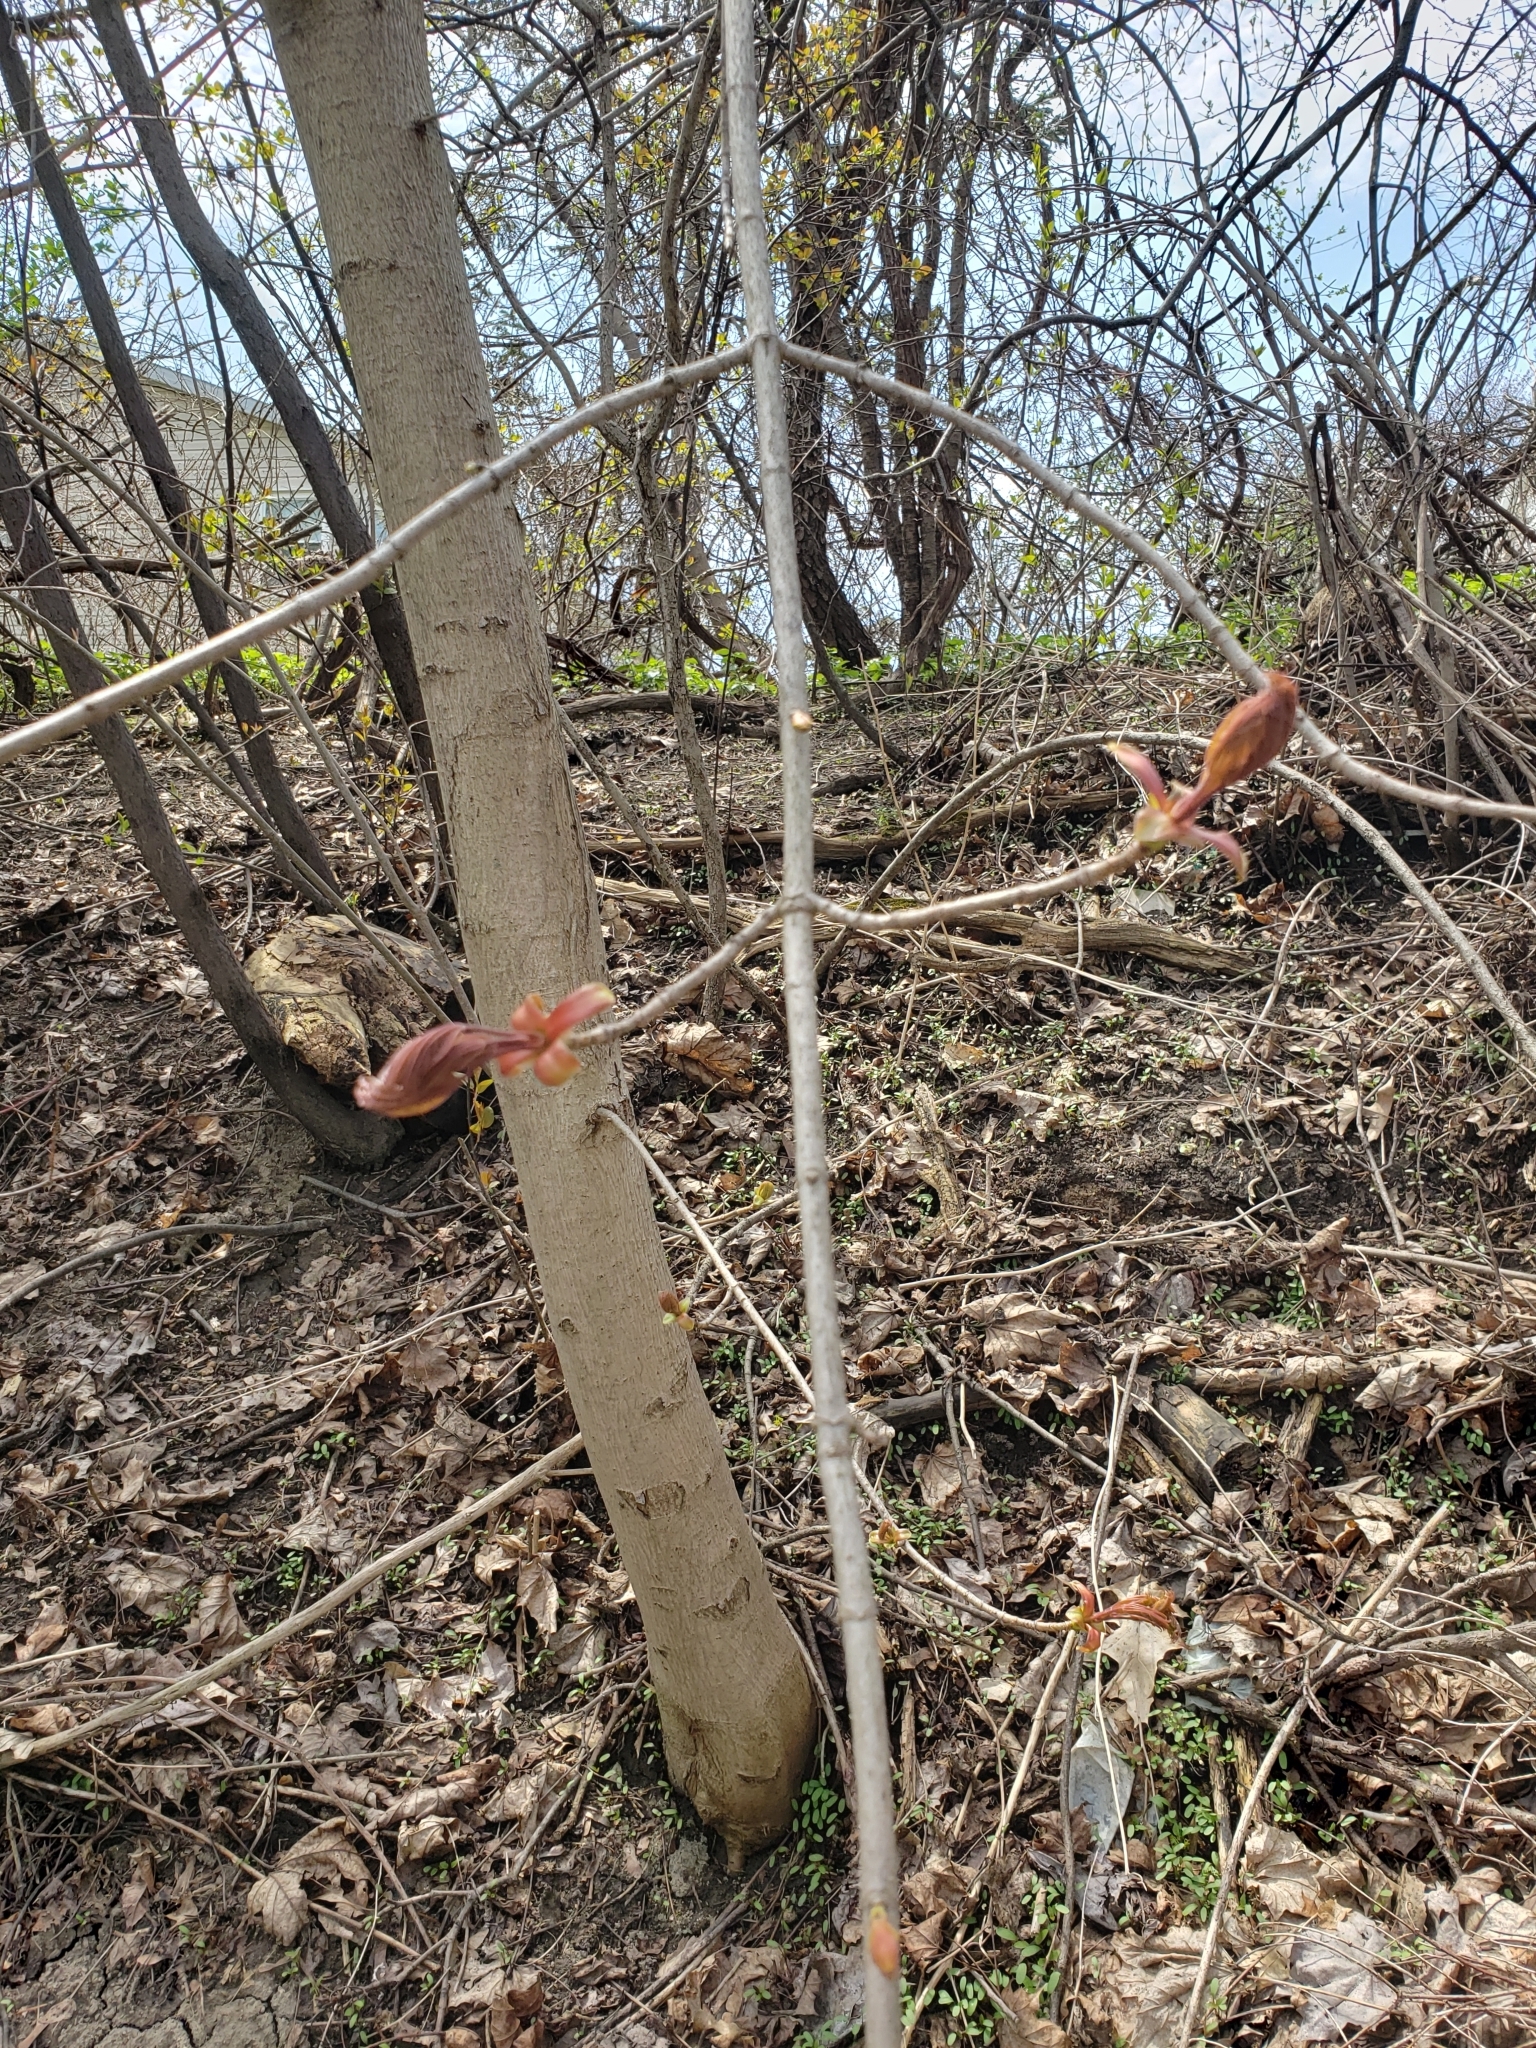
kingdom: Plantae
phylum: Tracheophyta
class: Magnoliopsida
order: Sapindales
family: Sapindaceae
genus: Acer
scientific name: Acer platanoides
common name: Norway maple
